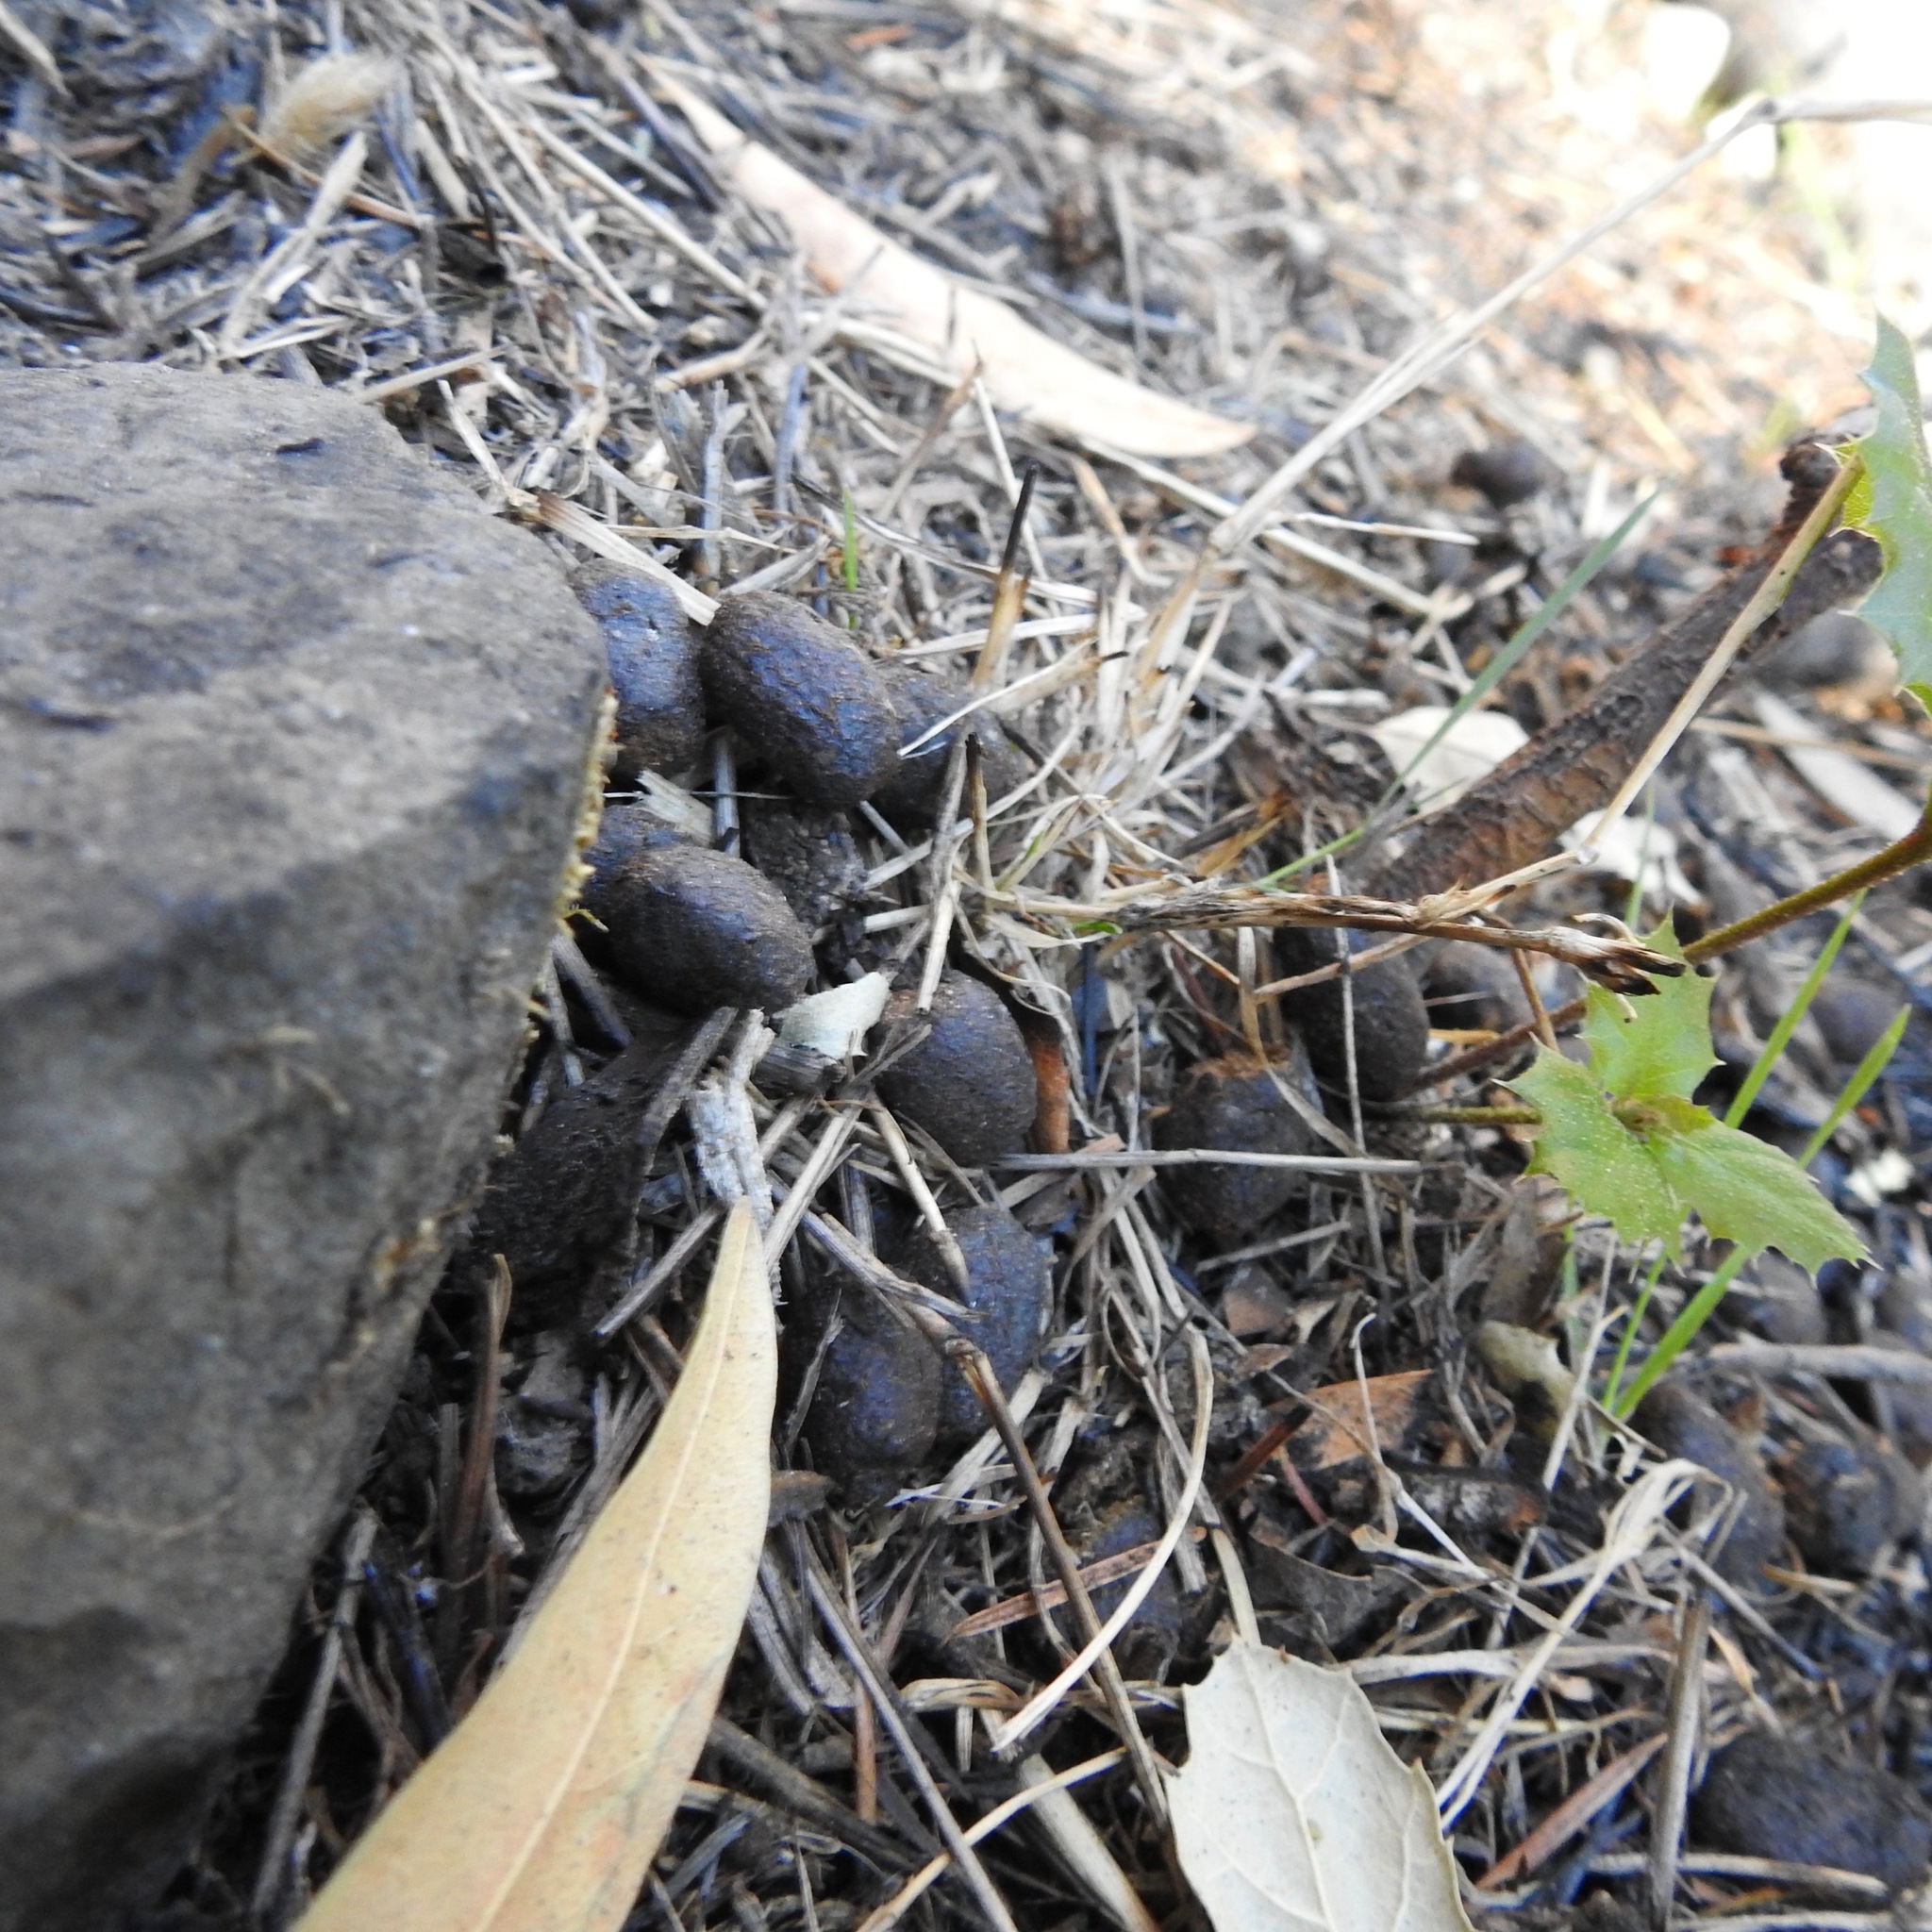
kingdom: Animalia
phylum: Chordata
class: Mammalia
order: Artiodactyla
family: Cervidae
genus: Odocoileus
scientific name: Odocoileus hemionus
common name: Mule deer
